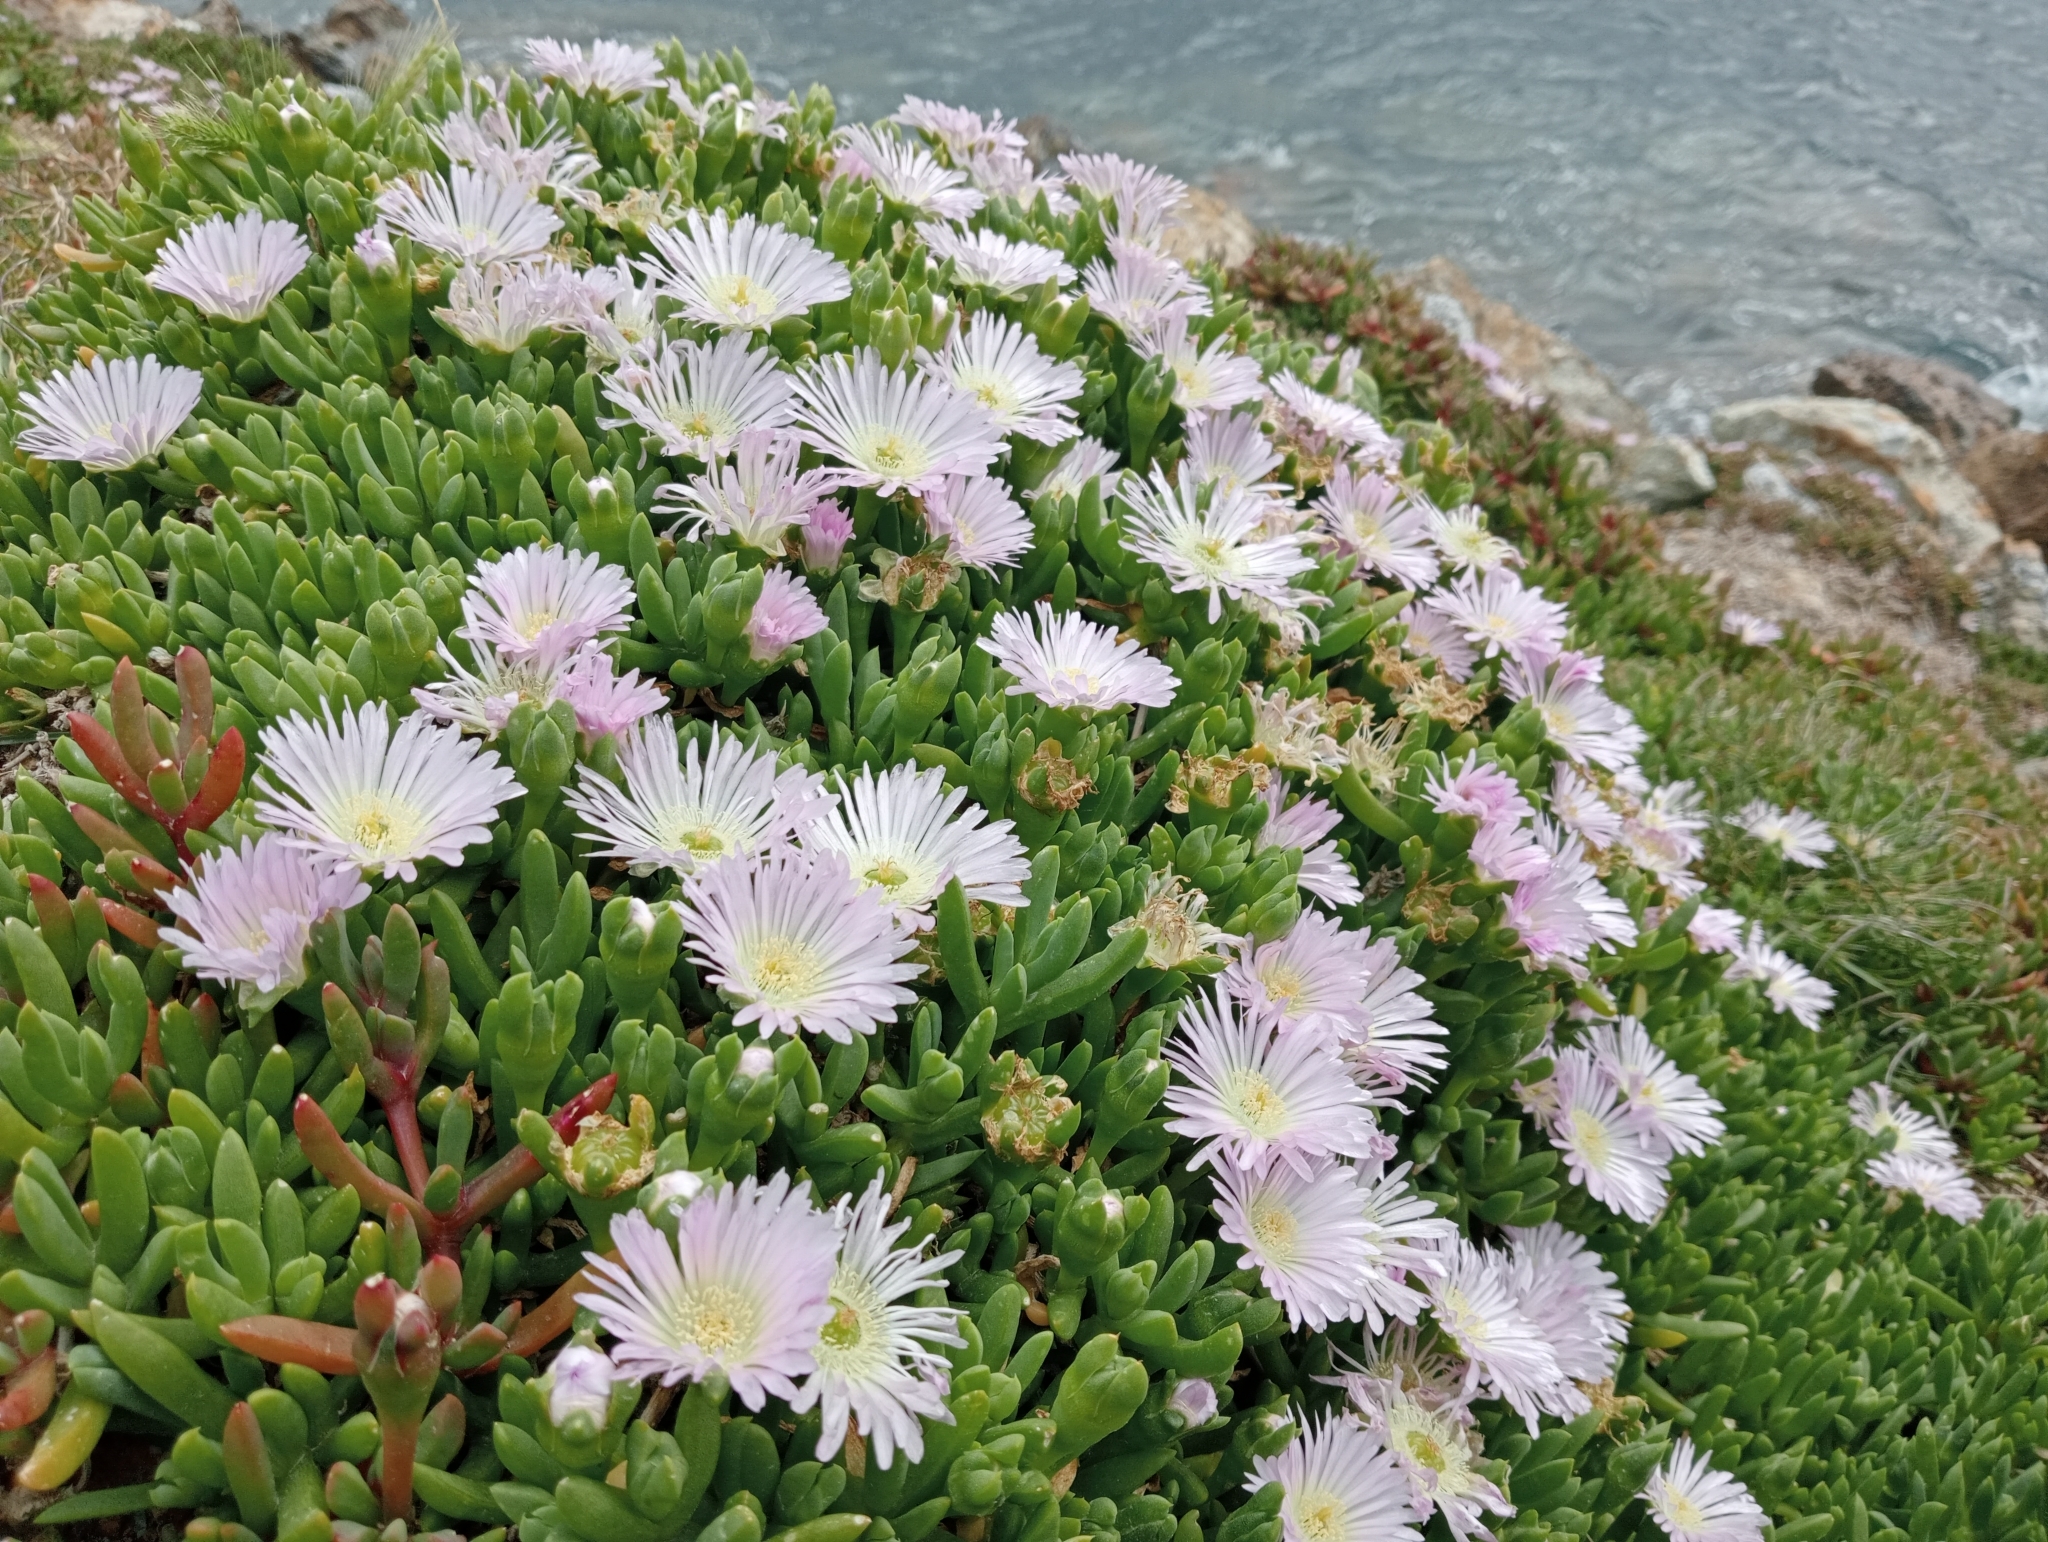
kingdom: Plantae
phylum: Tracheophyta
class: Magnoliopsida
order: Caryophyllales
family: Aizoaceae
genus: Disphyma
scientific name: Disphyma australe
